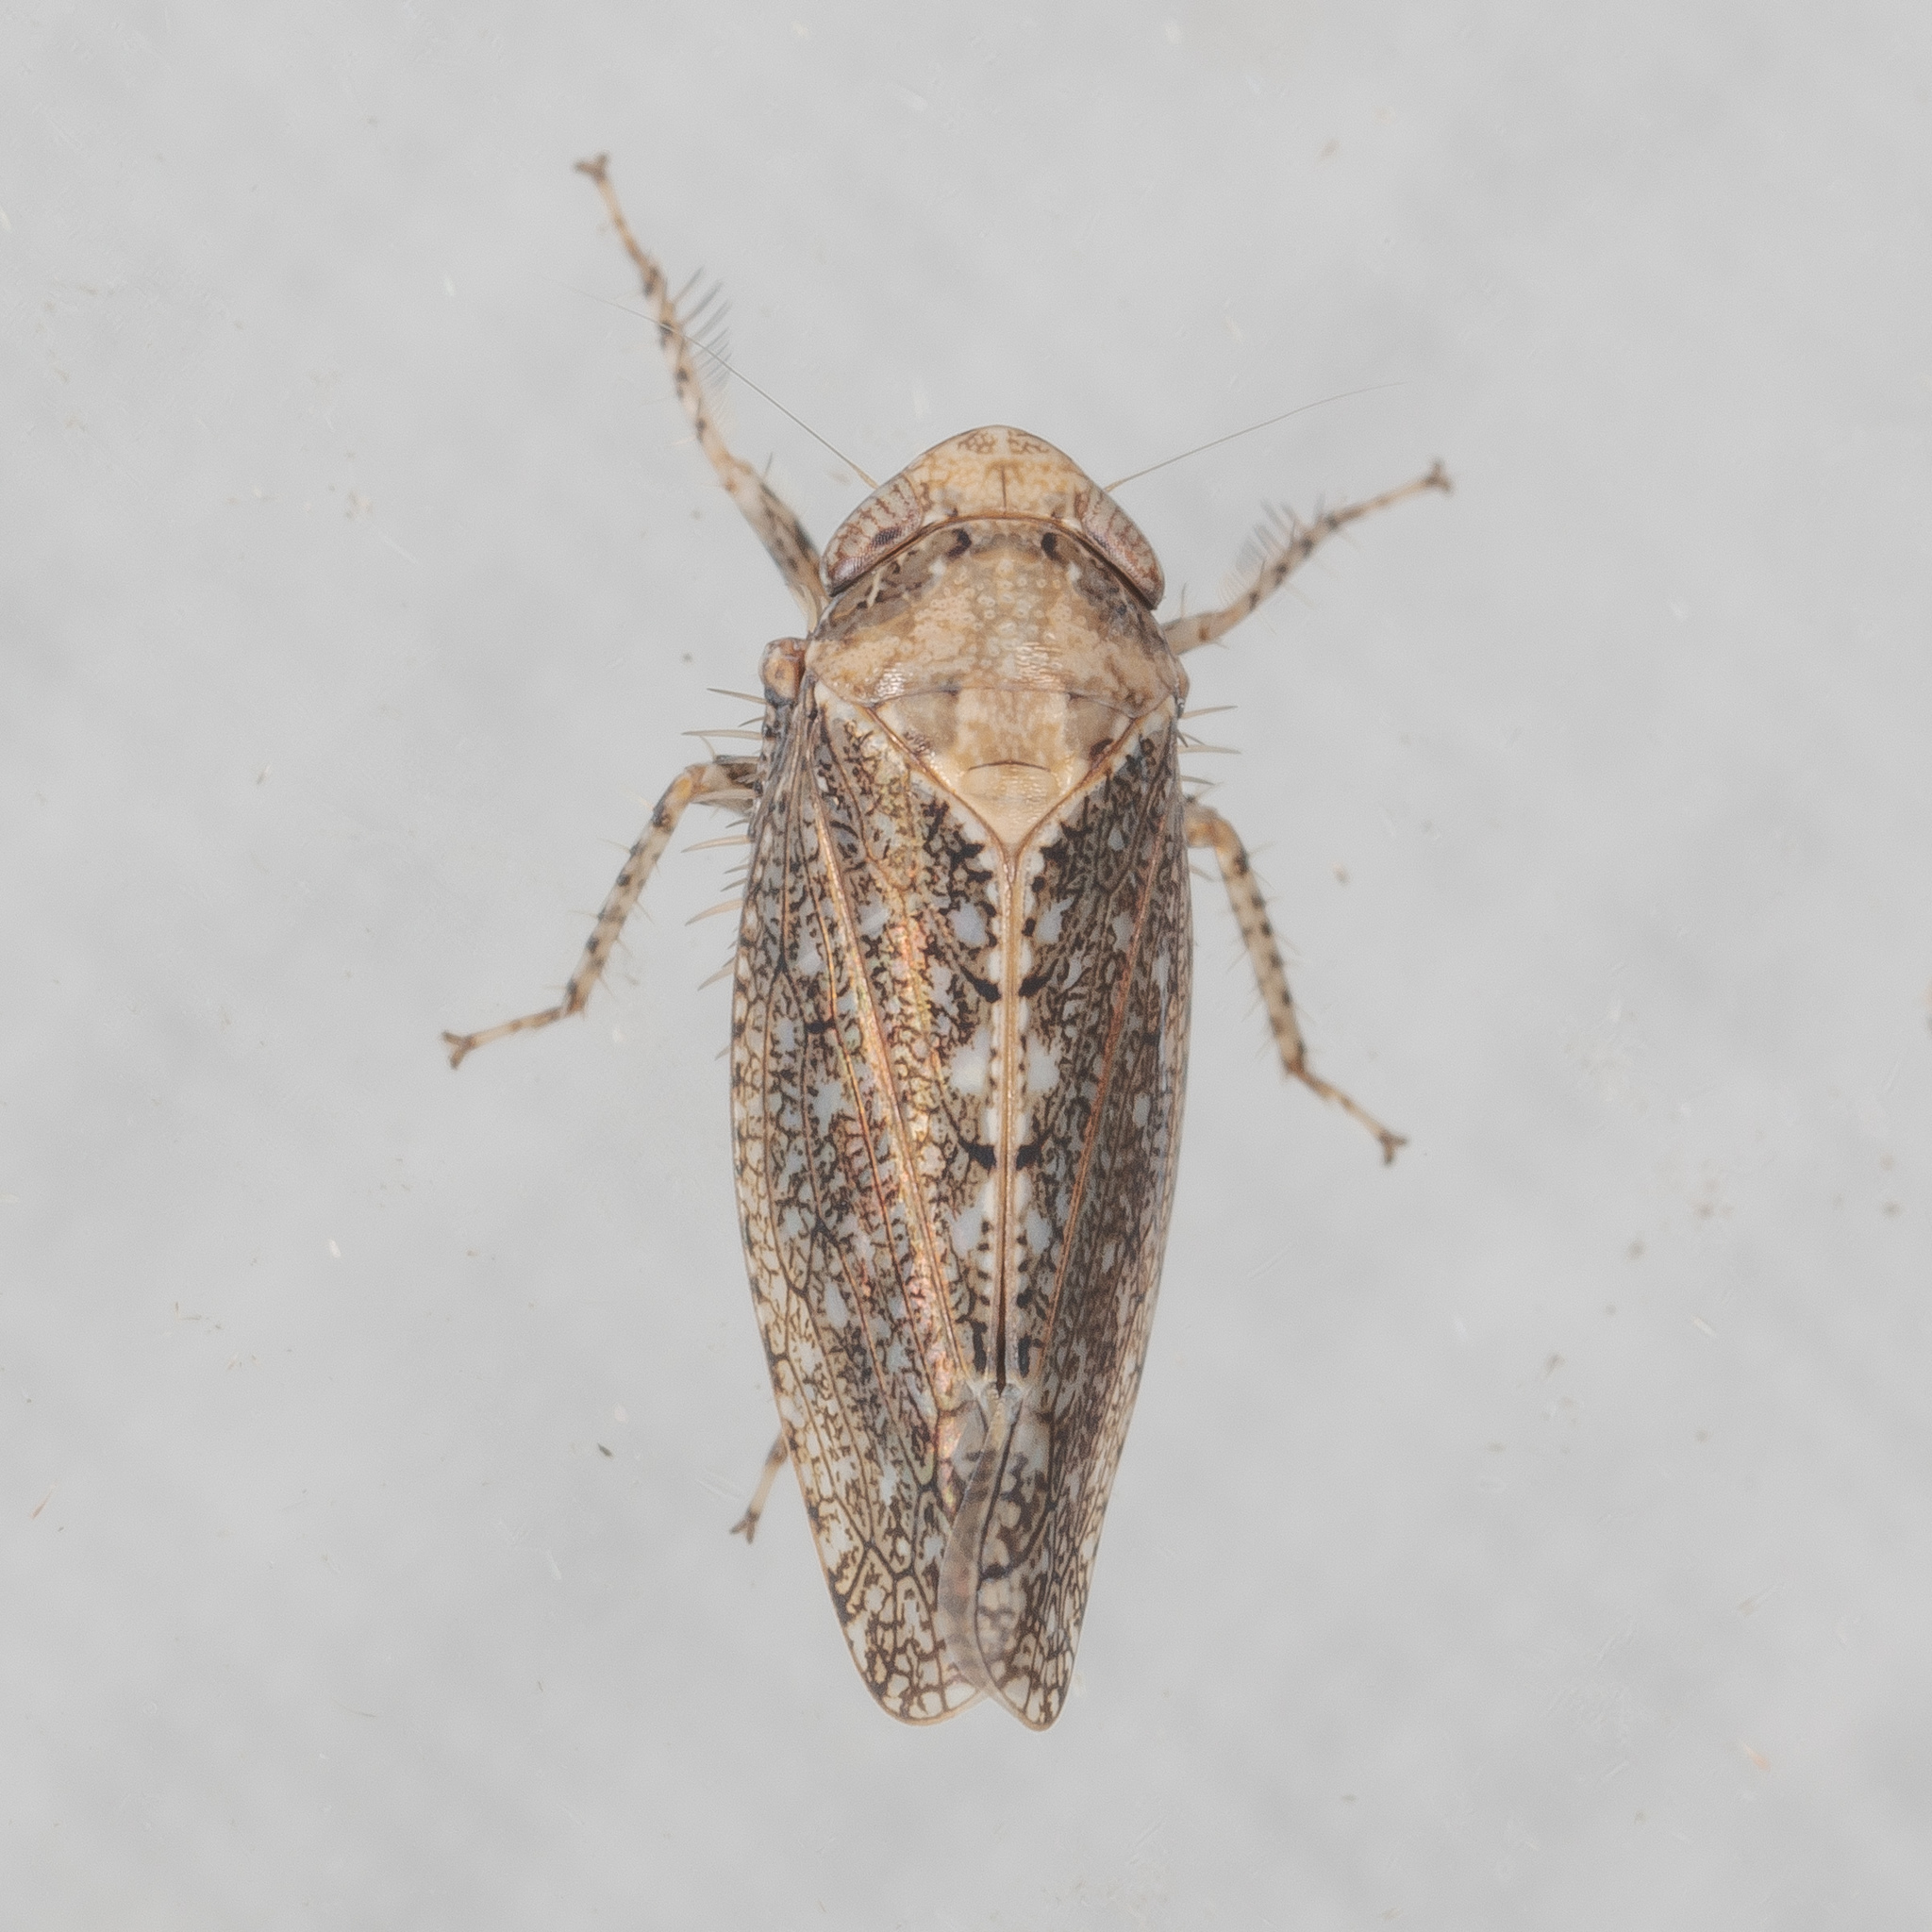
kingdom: Animalia
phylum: Arthropoda
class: Insecta
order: Hemiptera
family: Cicadellidae
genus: Excultanus
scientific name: Excultanus excultus
